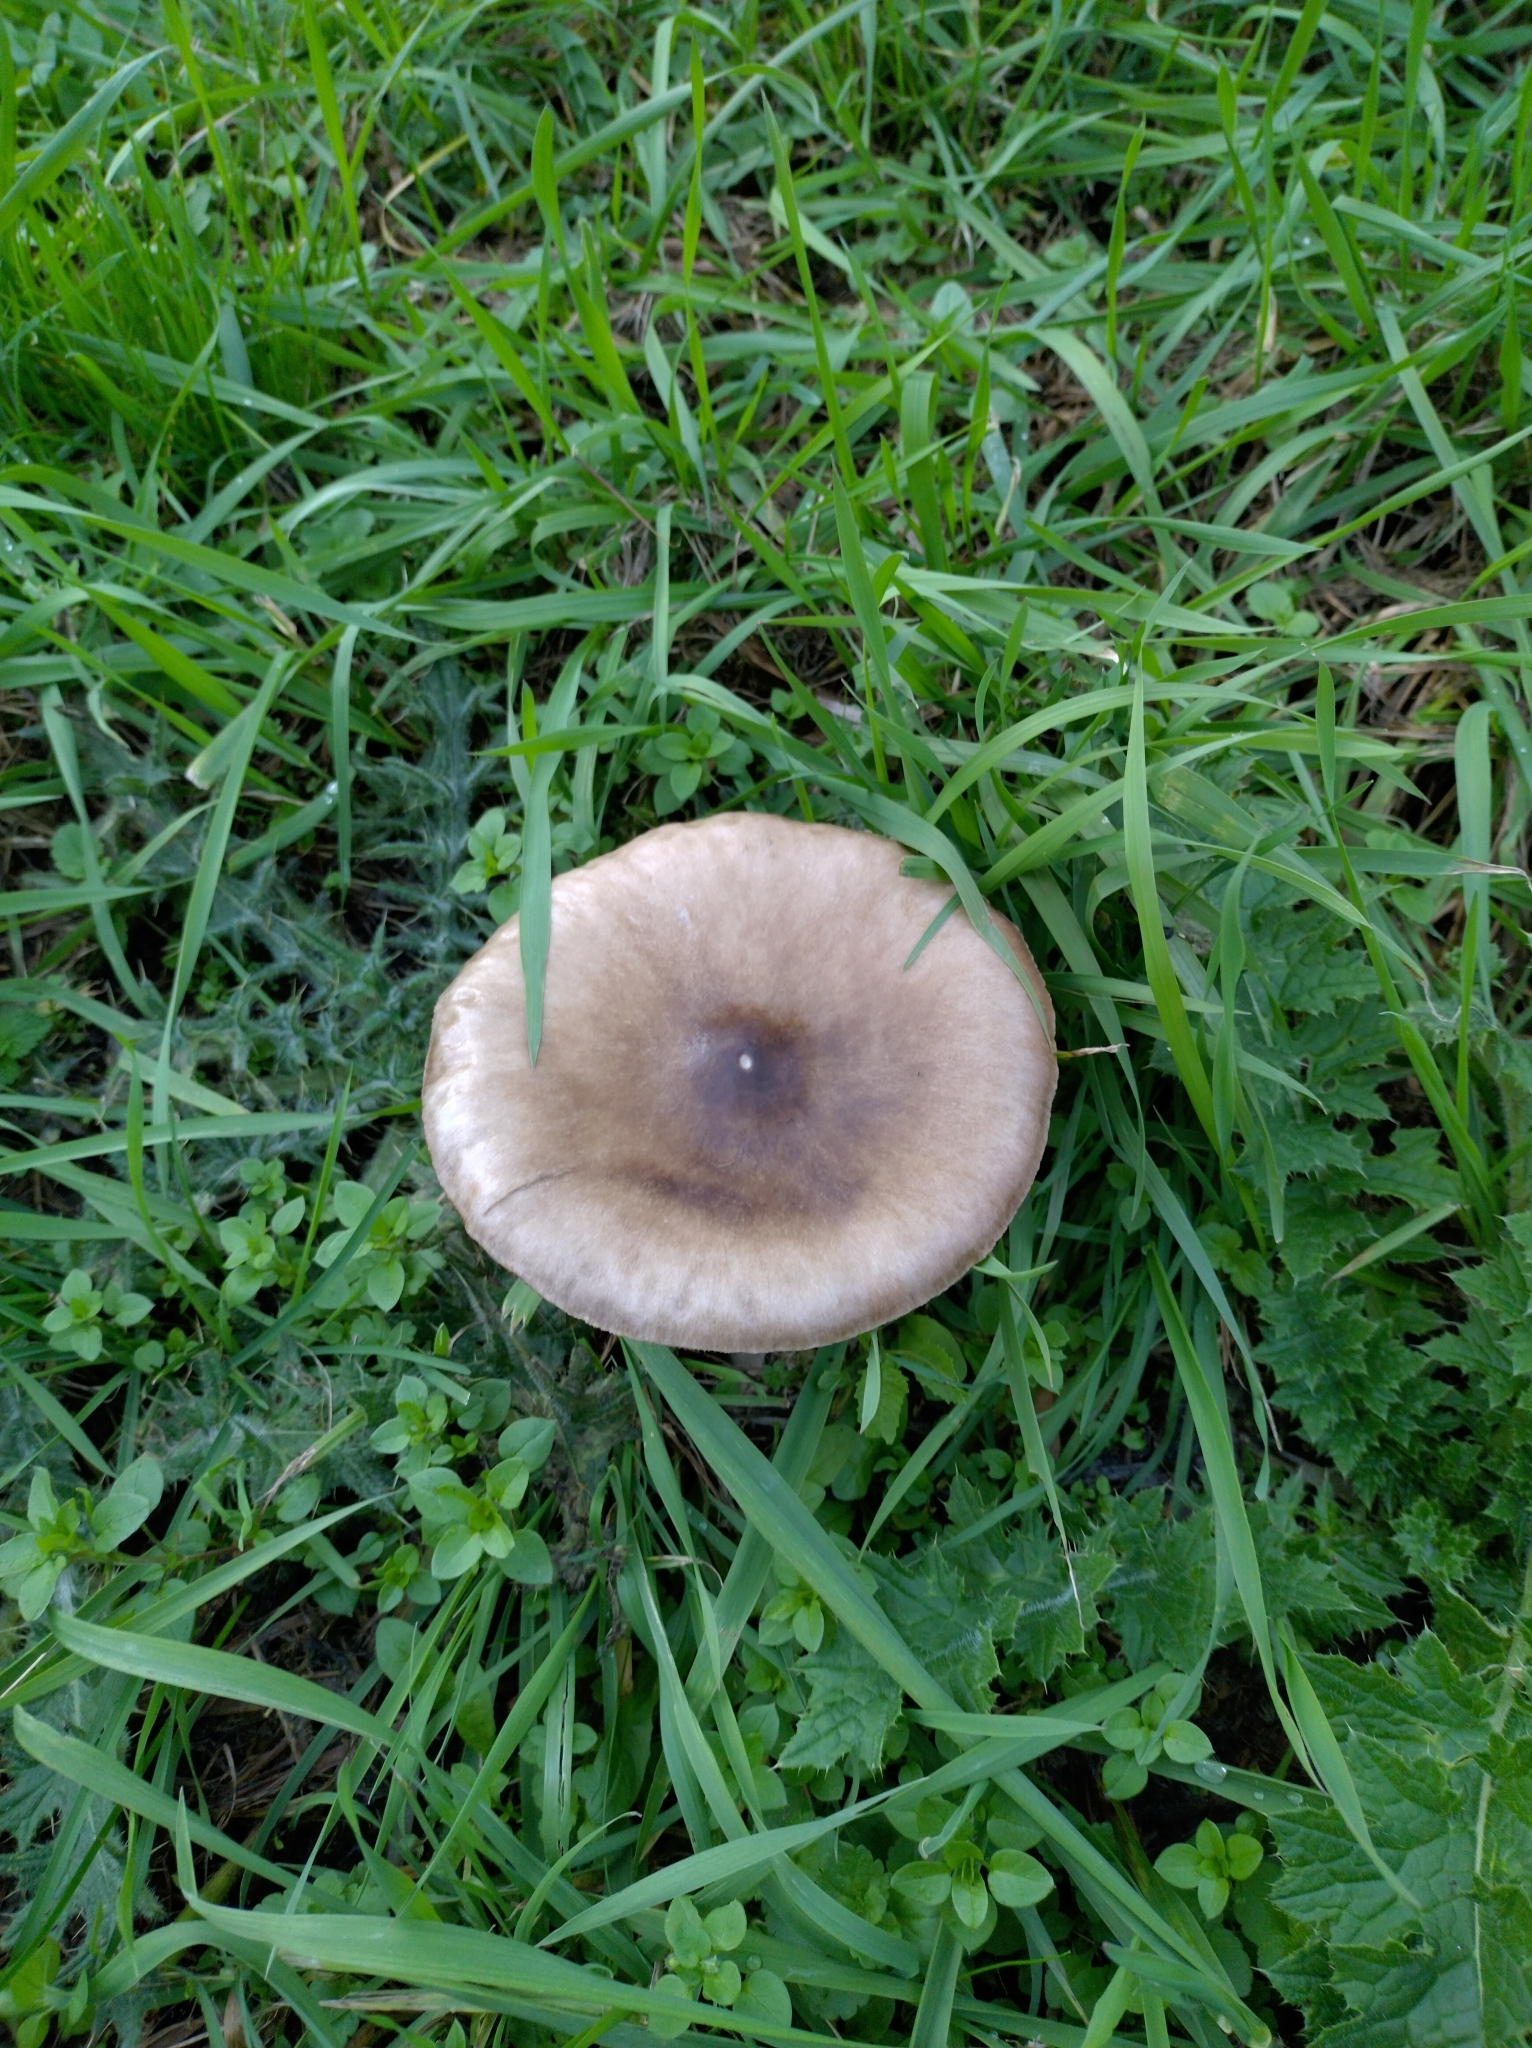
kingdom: Fungi
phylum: Basidiomycota
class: Agaricomycetes
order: Agaricales
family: Pluteaceae
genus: Volvopluteus
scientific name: Volvopluteus gloiocephalus
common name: Stubble rosegill
